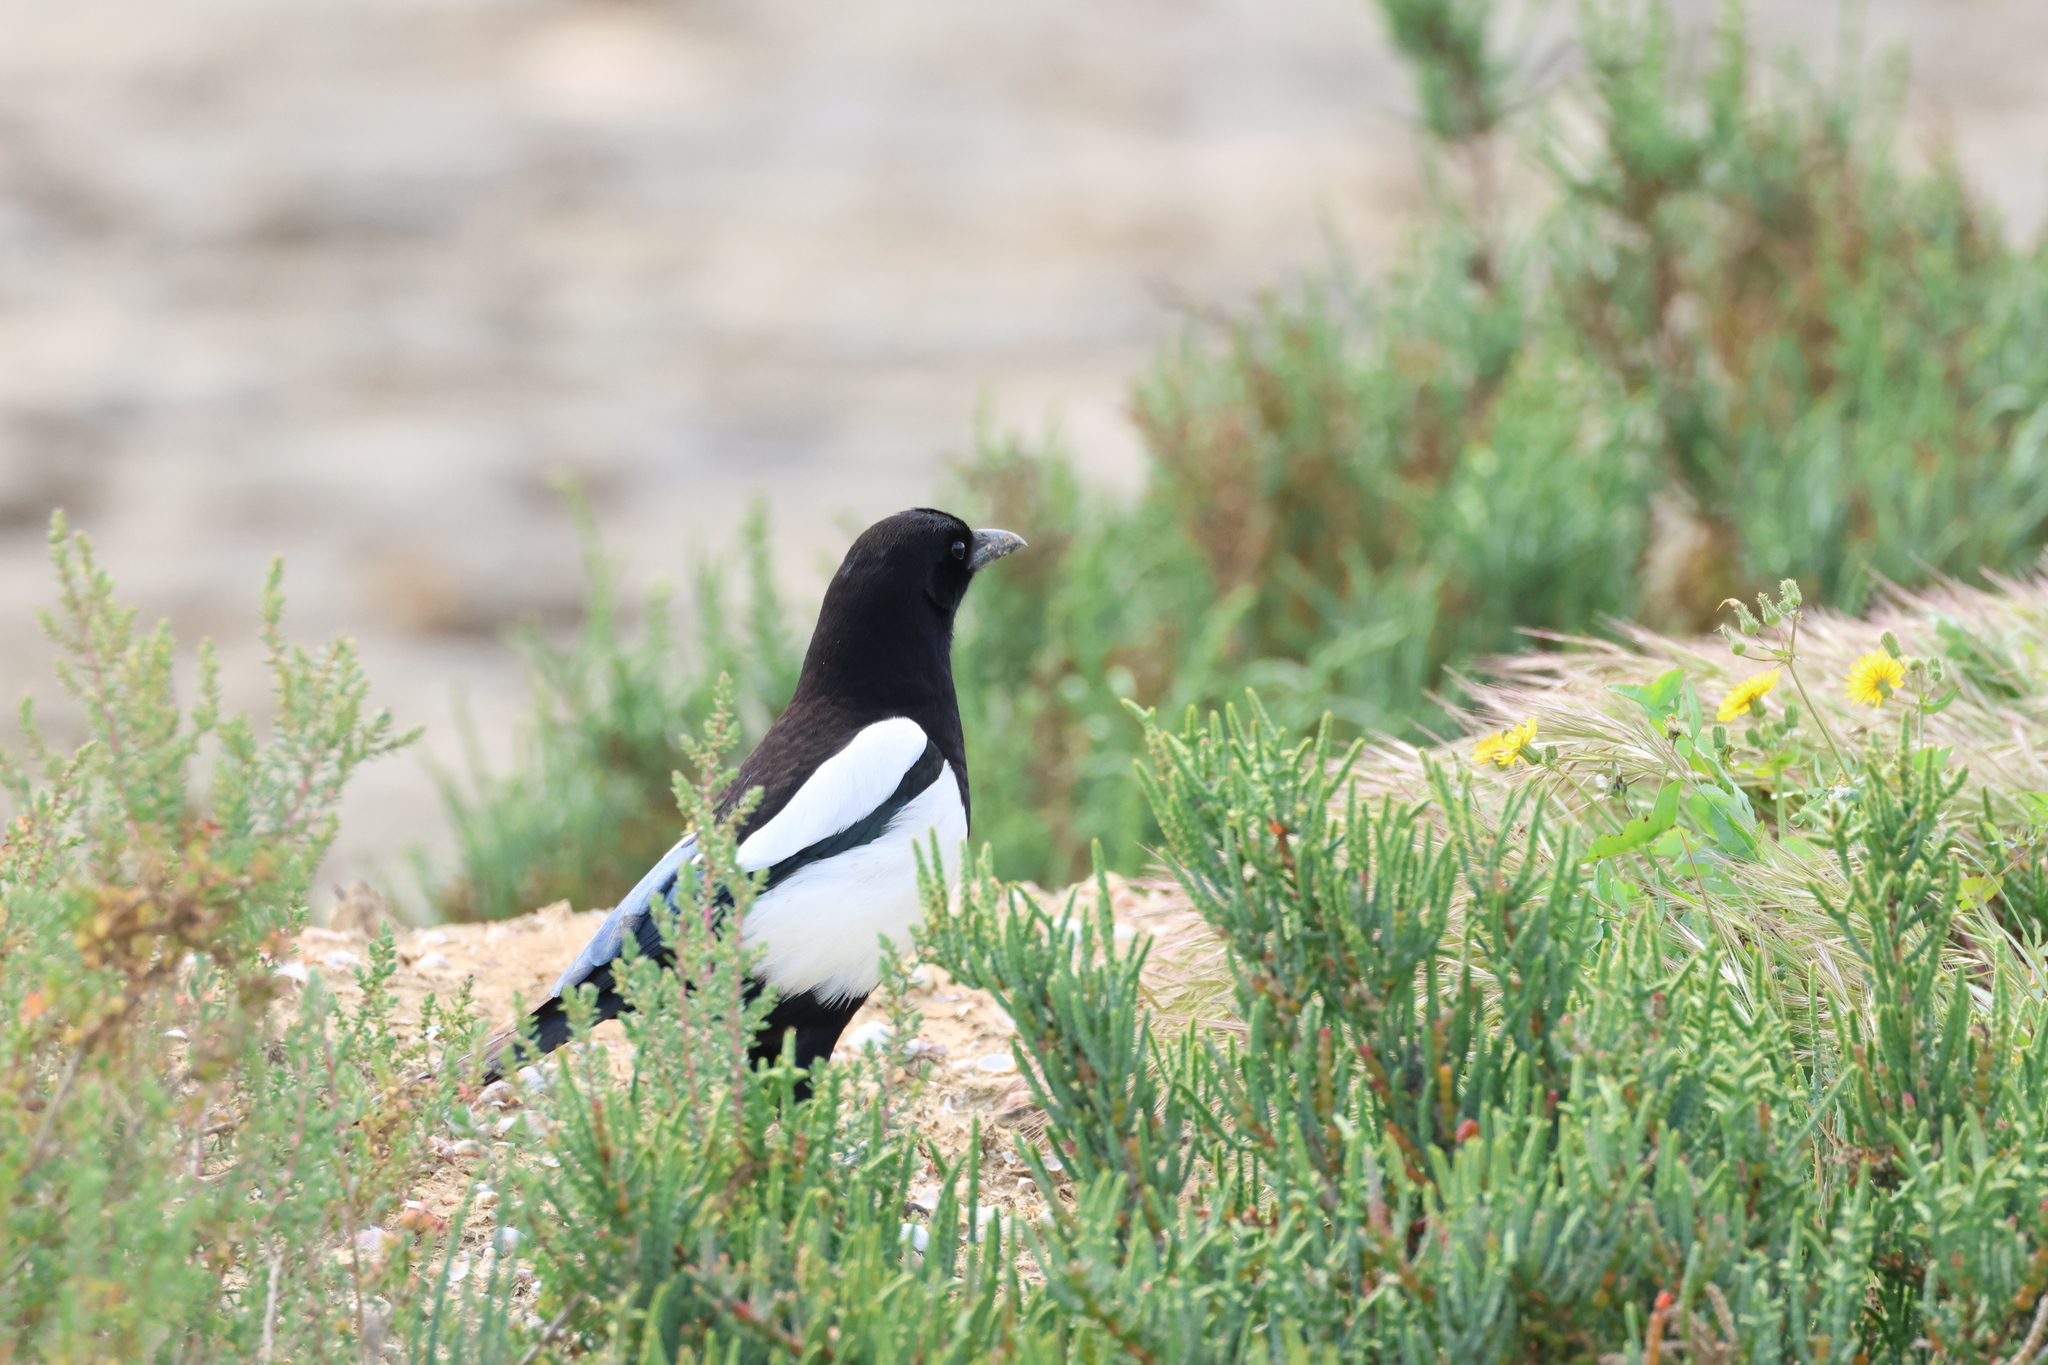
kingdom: Animalia
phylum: Chordata
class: Aves
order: Passeriformes
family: Corvidae
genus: Pica
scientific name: Pica pica
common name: Eurasian magpie
